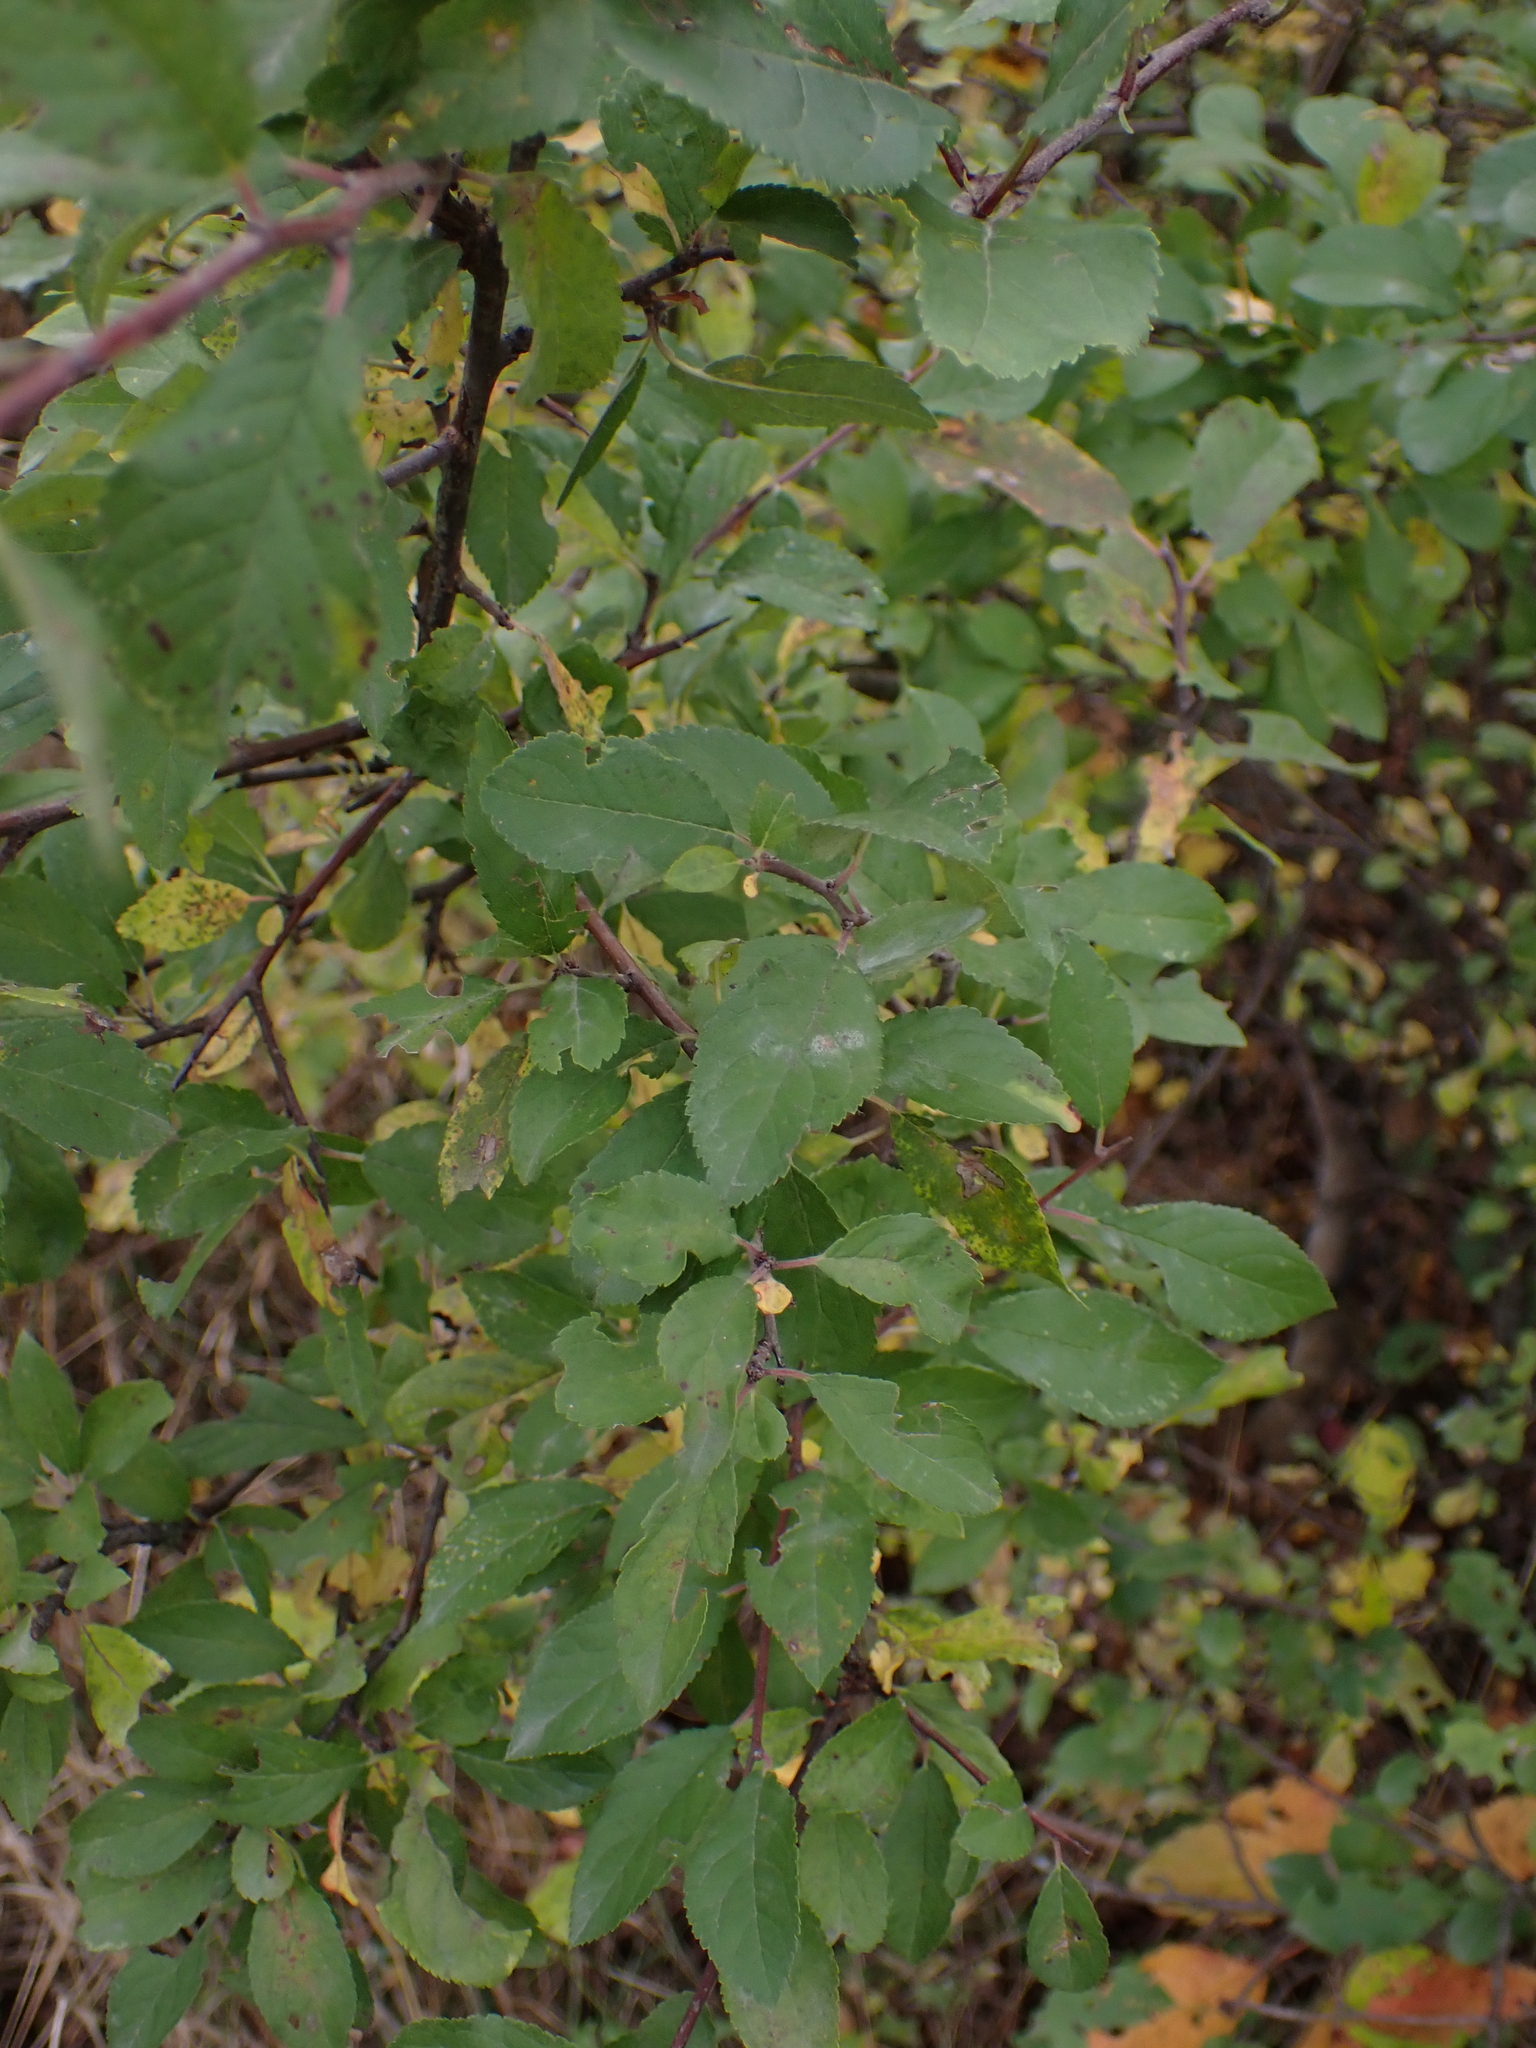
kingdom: Plantae
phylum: Tracheophyta
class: Magnoliopsida
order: Rosales
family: Rosaceae
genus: Prunus
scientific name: Prunus spinosa
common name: Blackthorn
